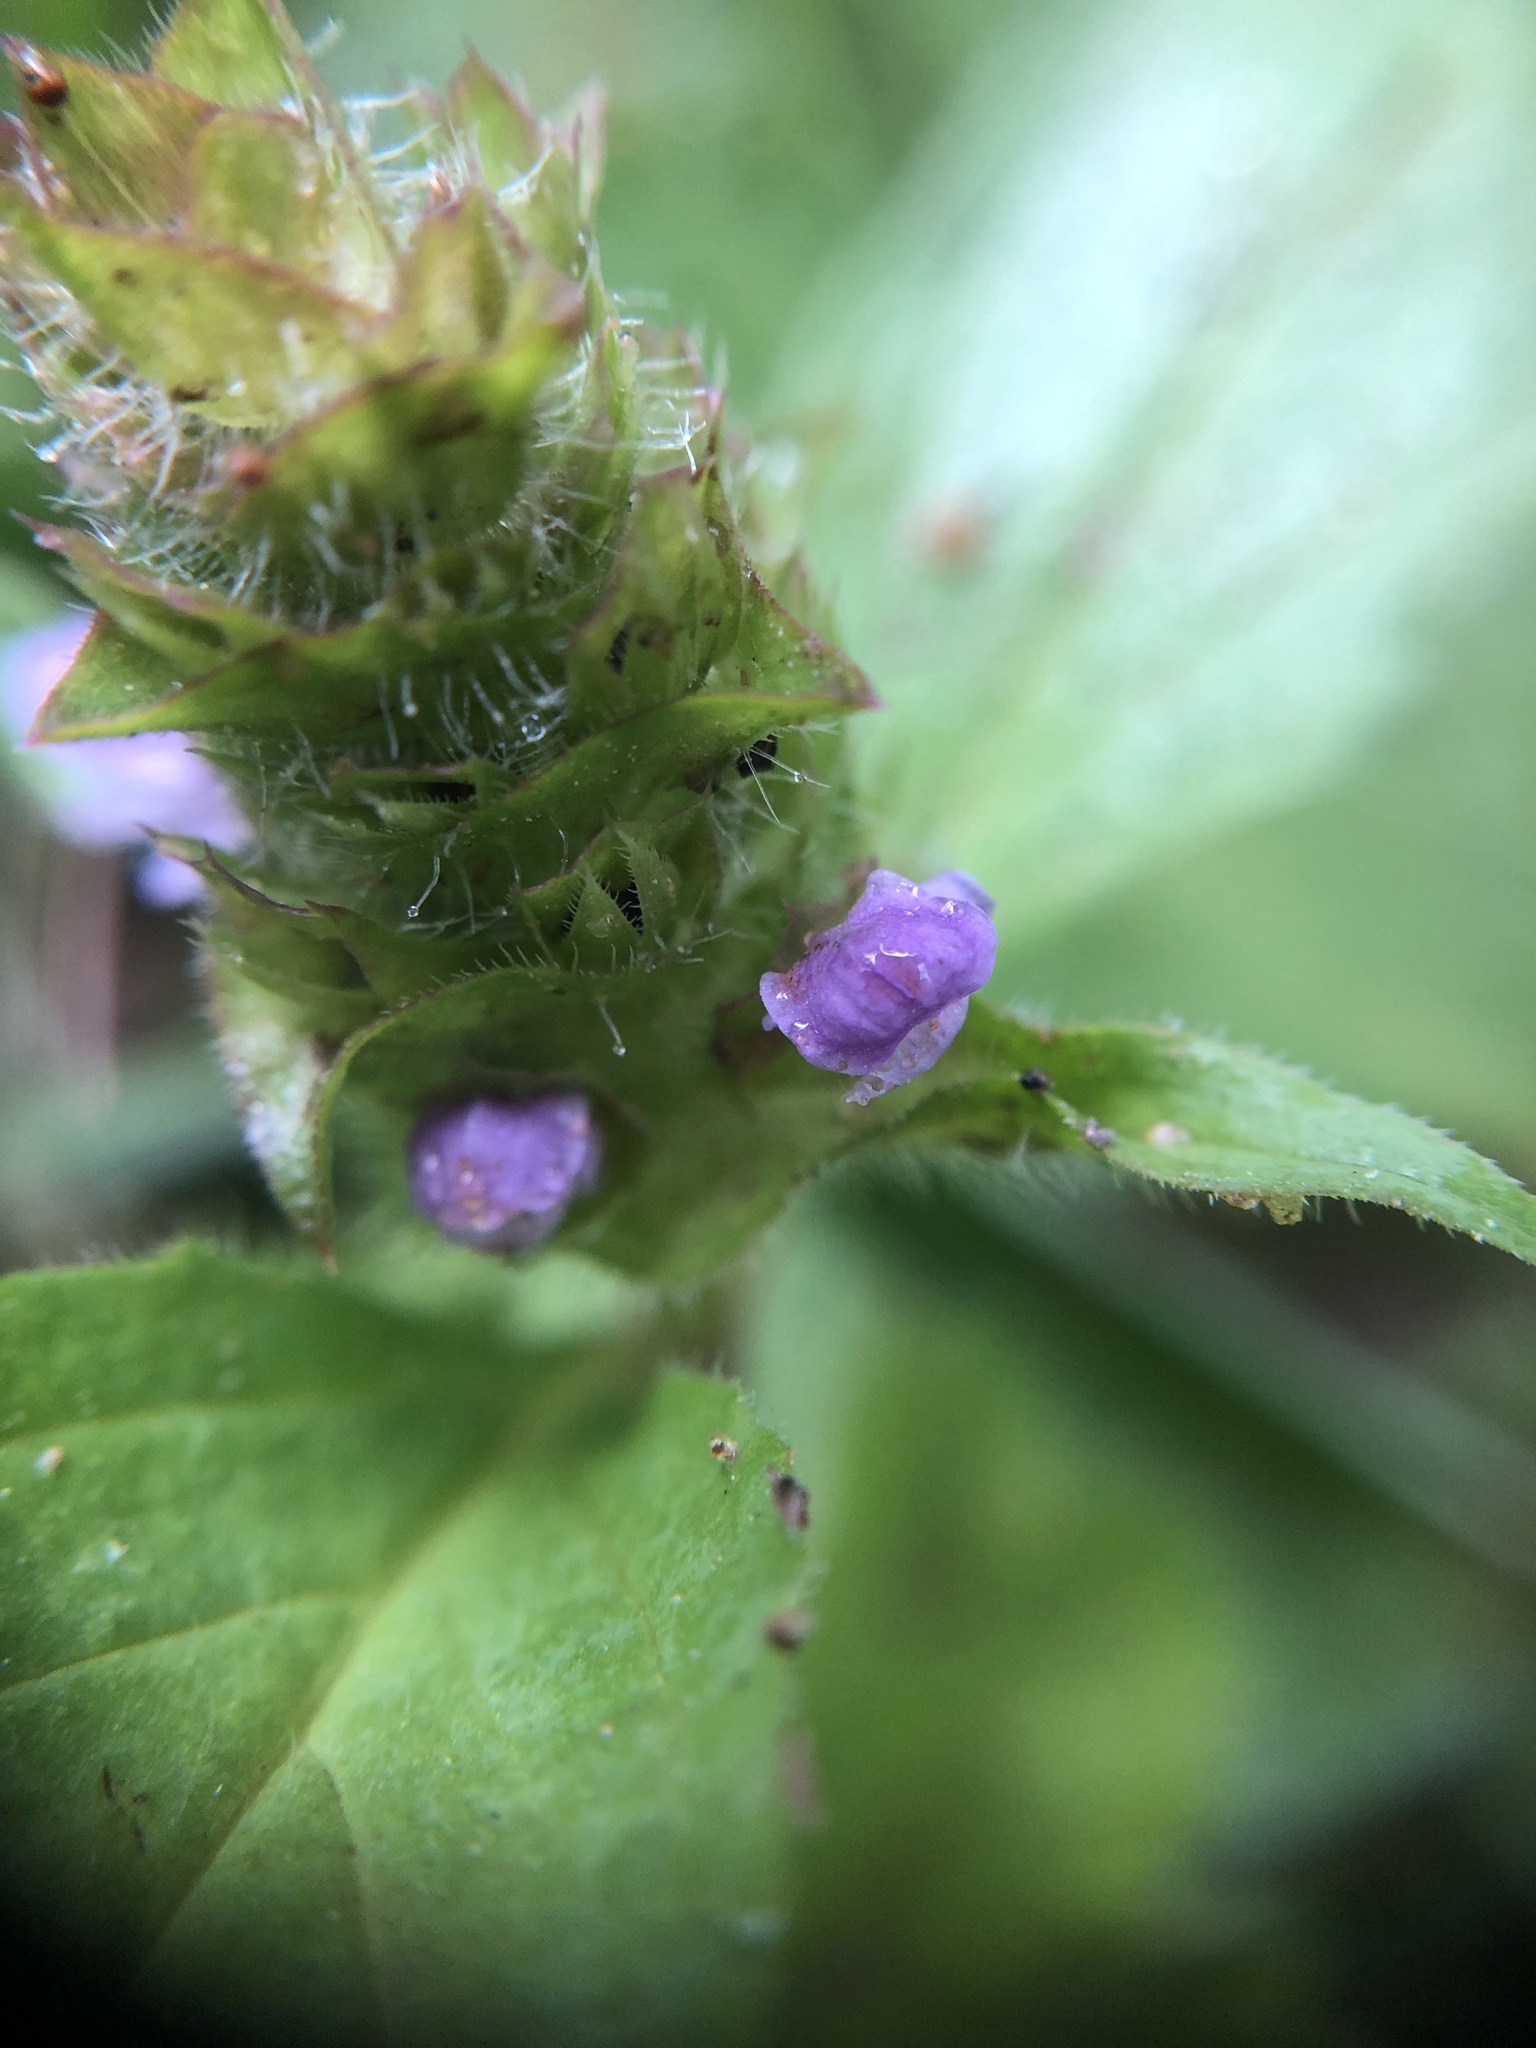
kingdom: Plantae
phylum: Tracheophyta
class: Magnoliopsida
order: Lamiales
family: Lamiaceae
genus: Prunella
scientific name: Prunella vulgaris
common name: Heal-all
